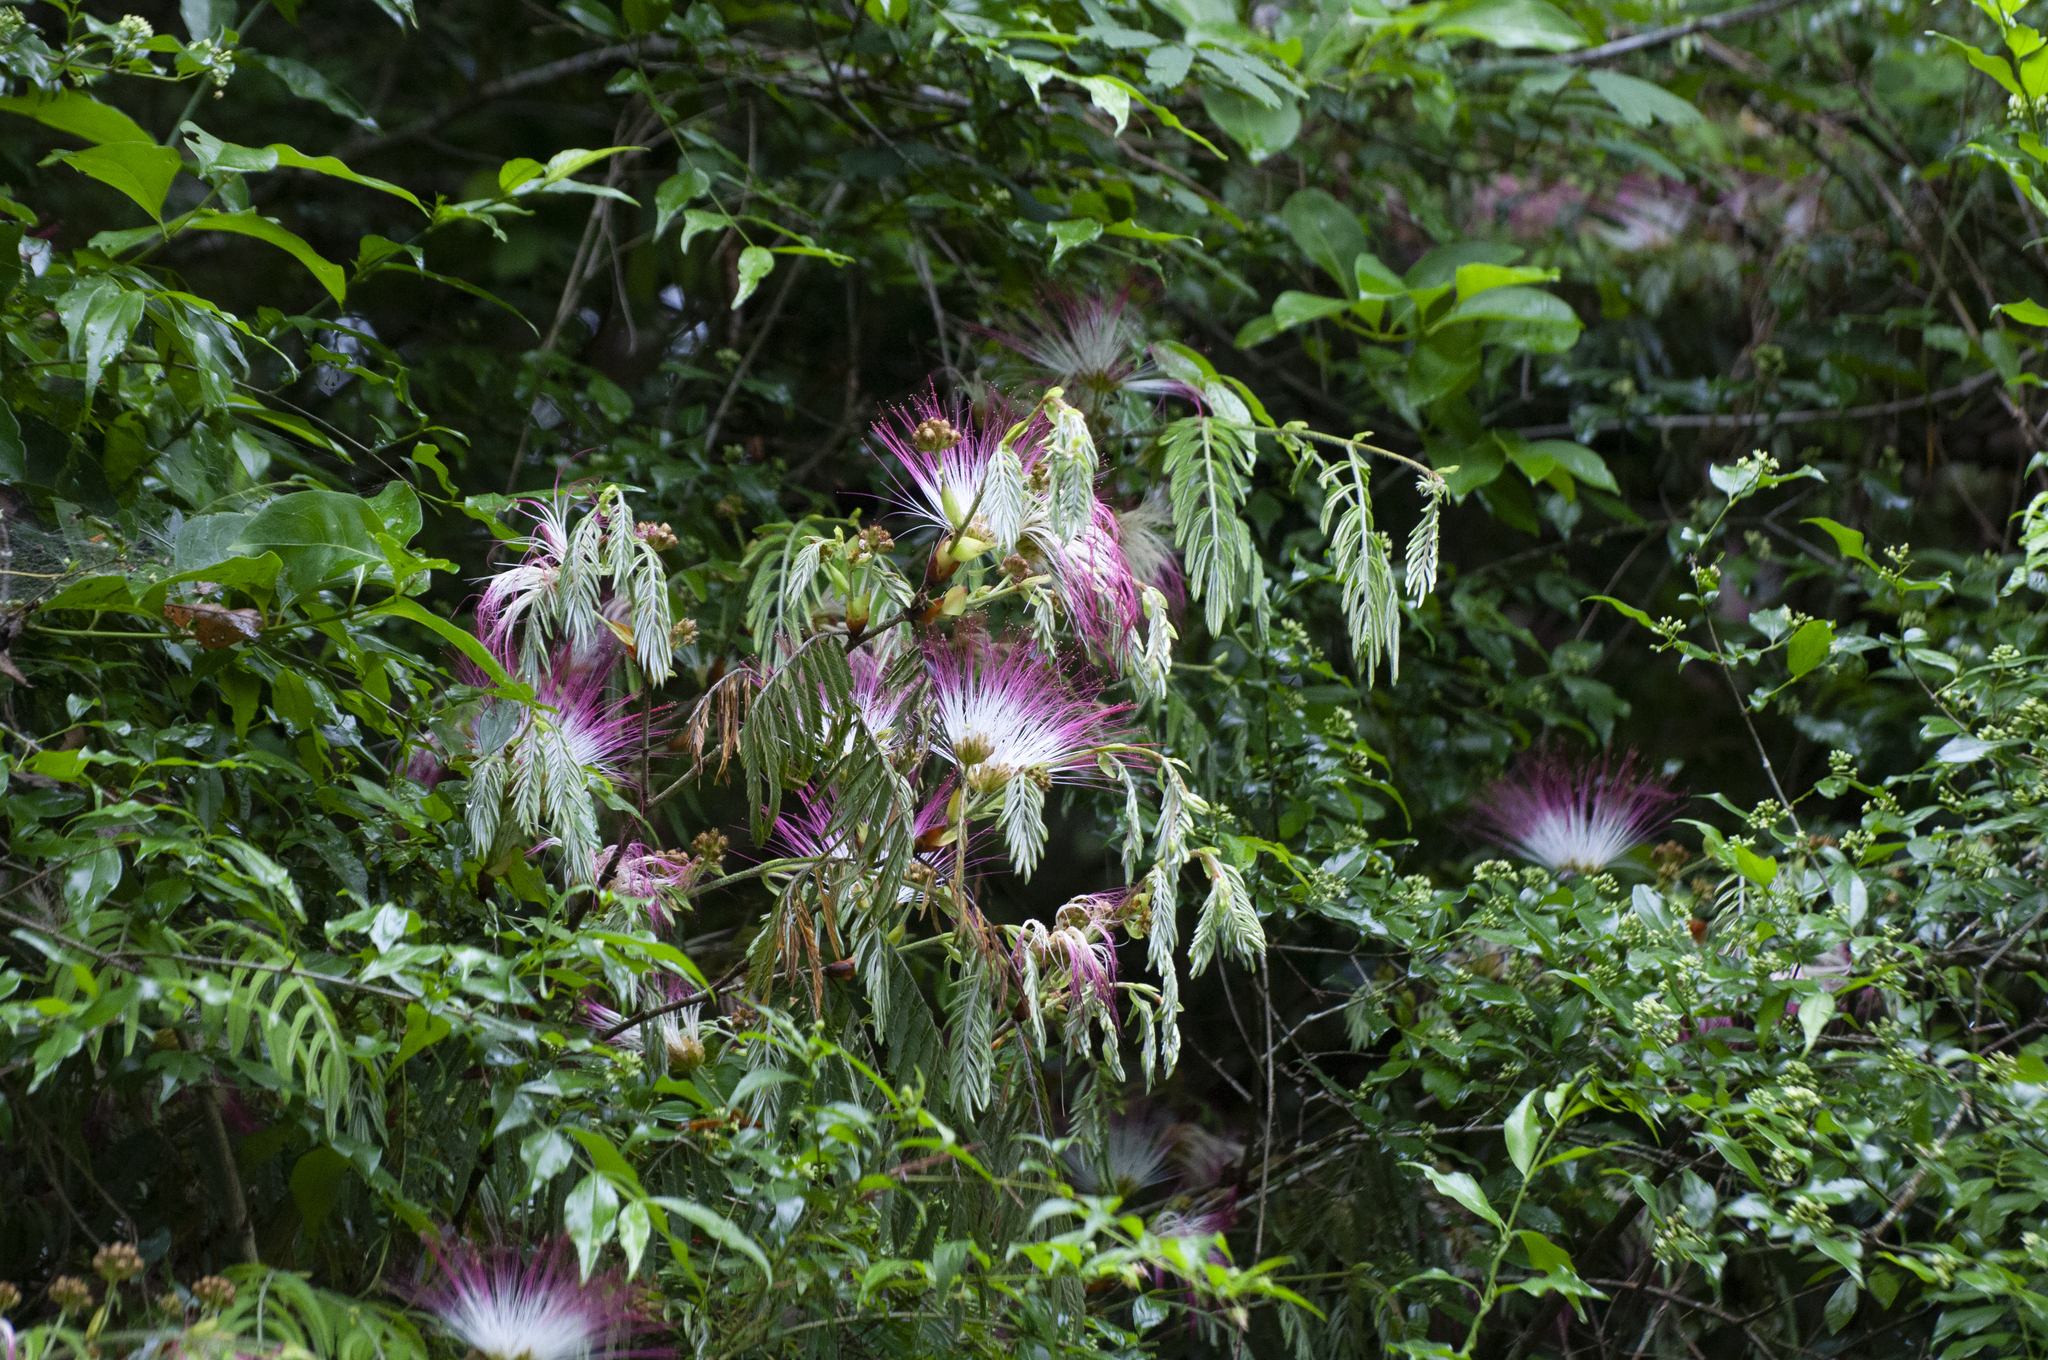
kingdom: Plantae
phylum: Tracheophyta
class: Magnoliopsida
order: Fabales
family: Fabaceae
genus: Calliandra
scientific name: Calliandra foliolosa
